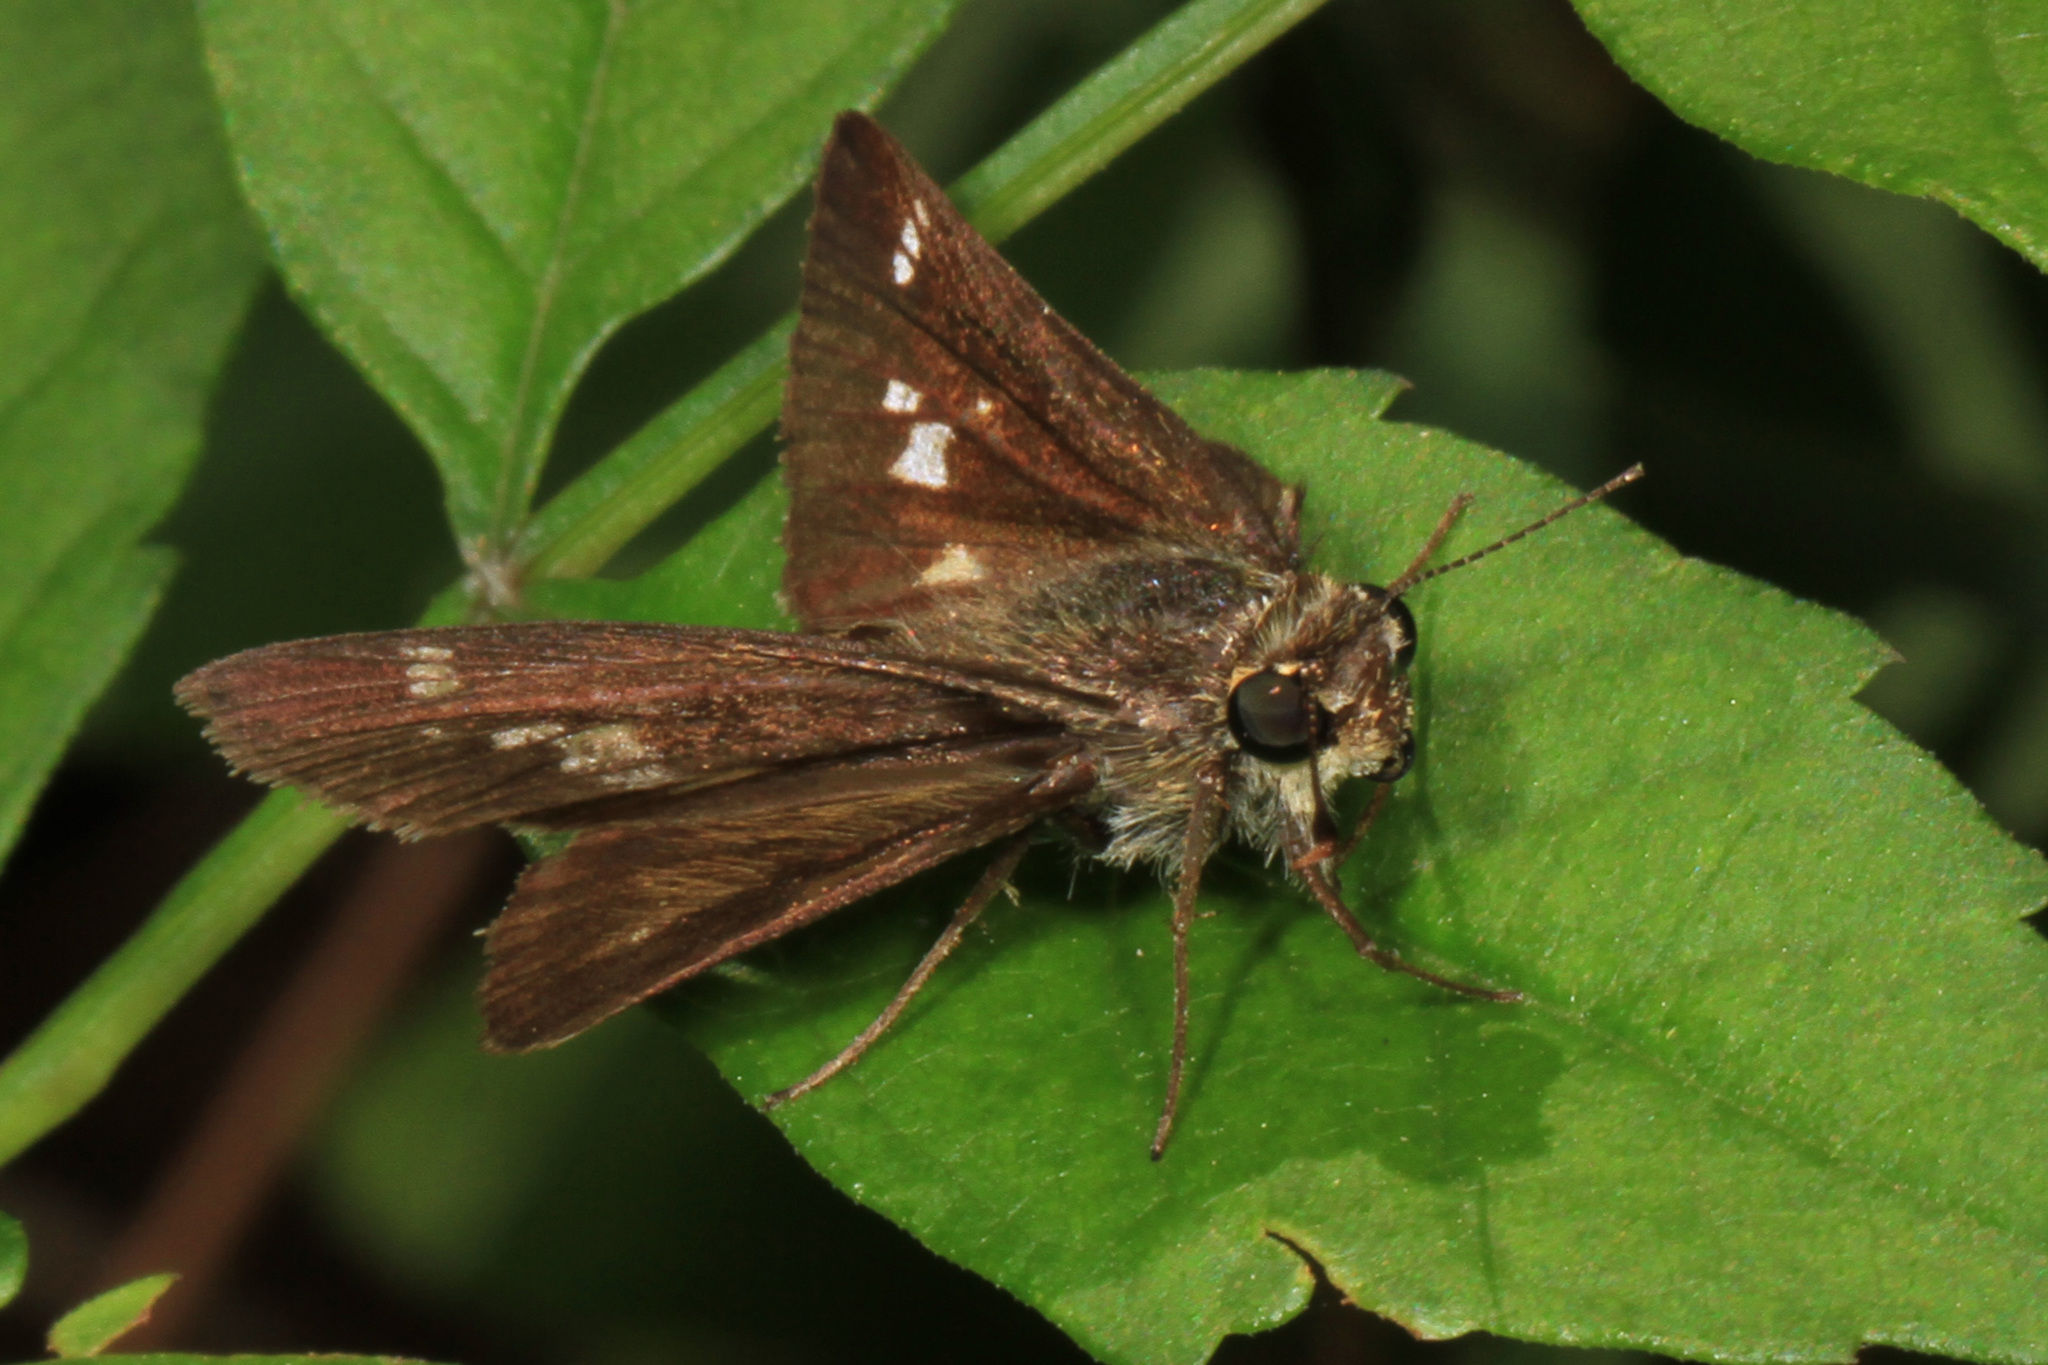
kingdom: Animalia
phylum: Arthropoda
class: Insecta
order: Lepidoptera
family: Hesperiidae
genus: Vernia
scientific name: Vernia verna
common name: Little glassywing
